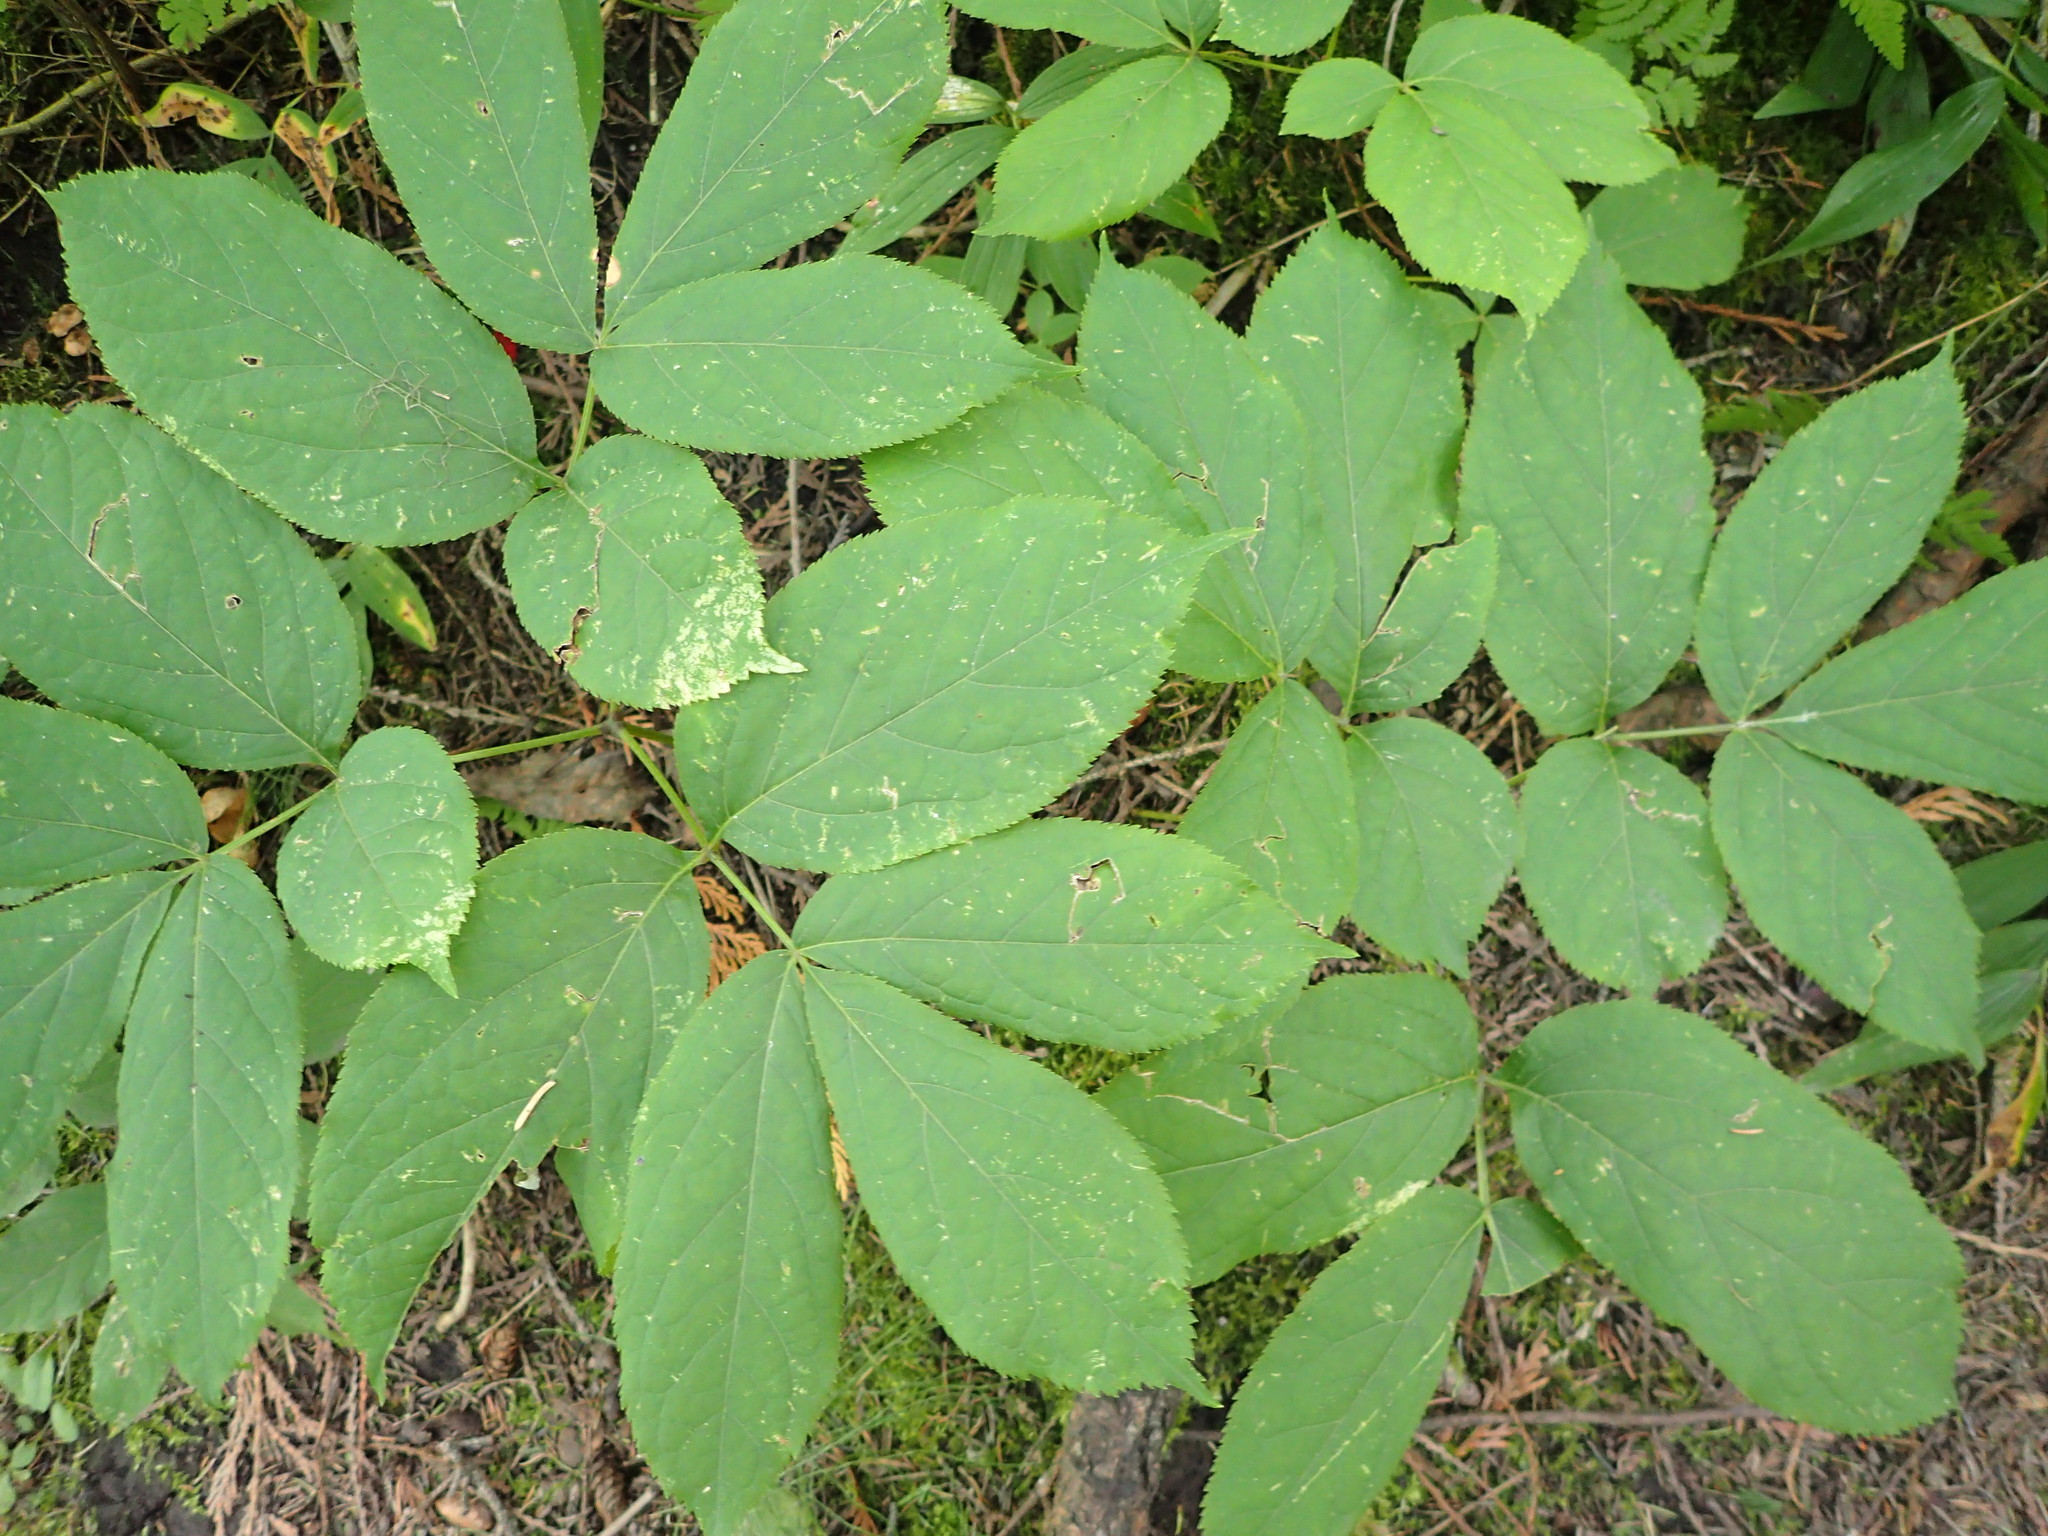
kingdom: Plantae
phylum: Tracheophyta
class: Magnoliopsida
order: Apiales
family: Araliaceae
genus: Aralia
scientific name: Aralia nudicaulis
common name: Wild sarsaparilla
